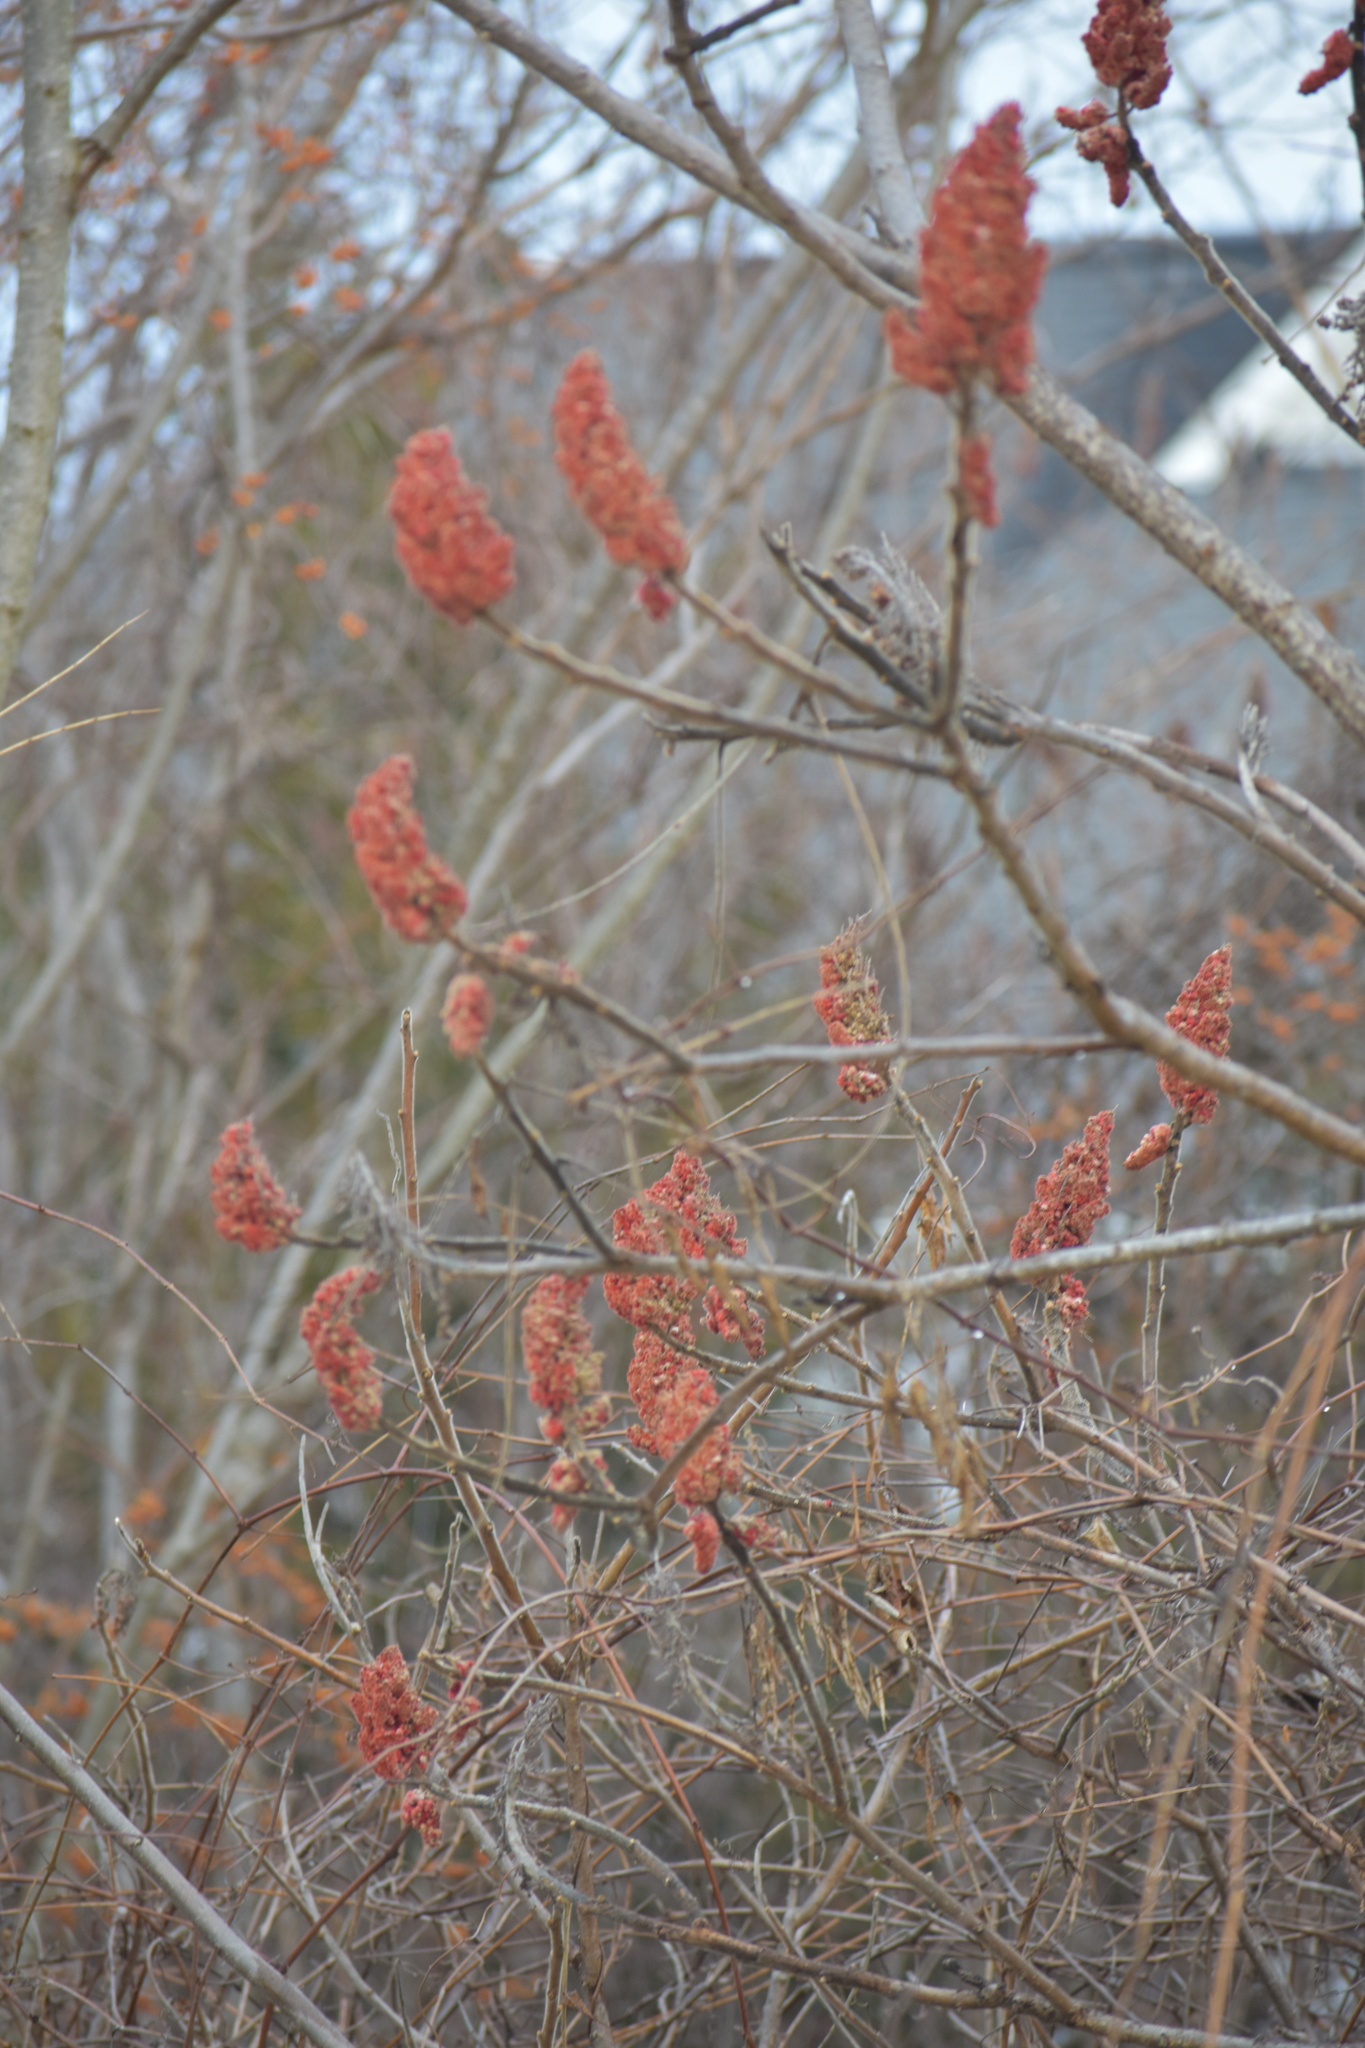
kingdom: Plantae
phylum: Tracheophyta
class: Magnoliopsida
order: Sapindales
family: Anacardiaceae
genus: Rhus
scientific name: Rhus typhina
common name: Staghorn sumac
